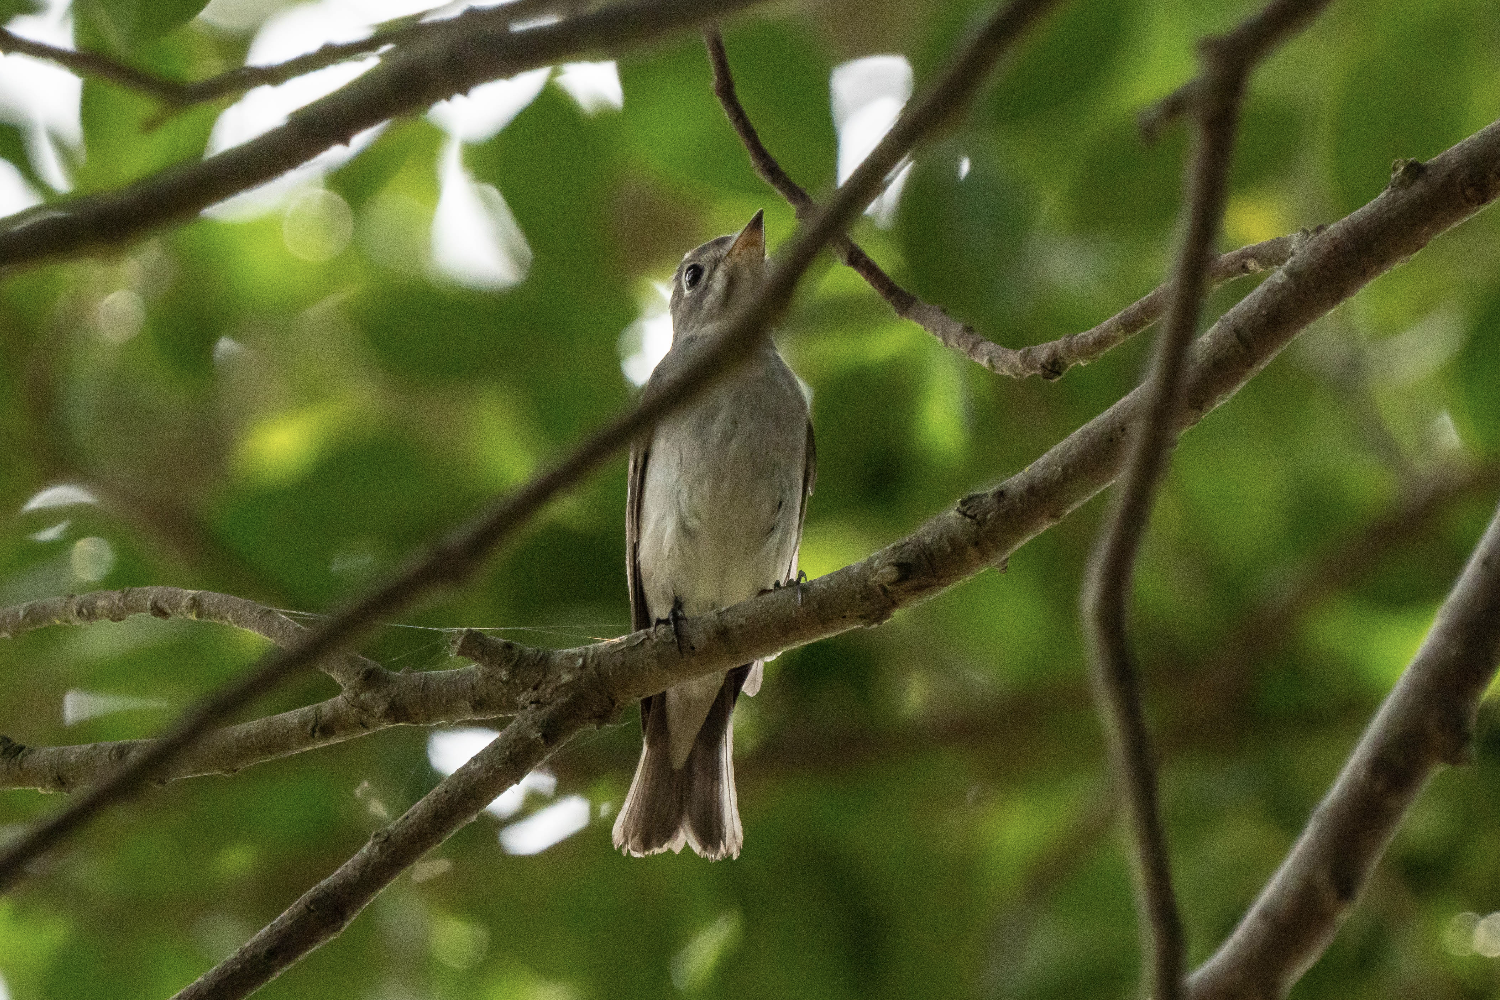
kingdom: Animalia
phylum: Chordata
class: Aves
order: Passeriformes
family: Muscicapidae
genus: Muscicapa
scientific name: Muscicapa latirostris
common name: Asian brown flycatcher
